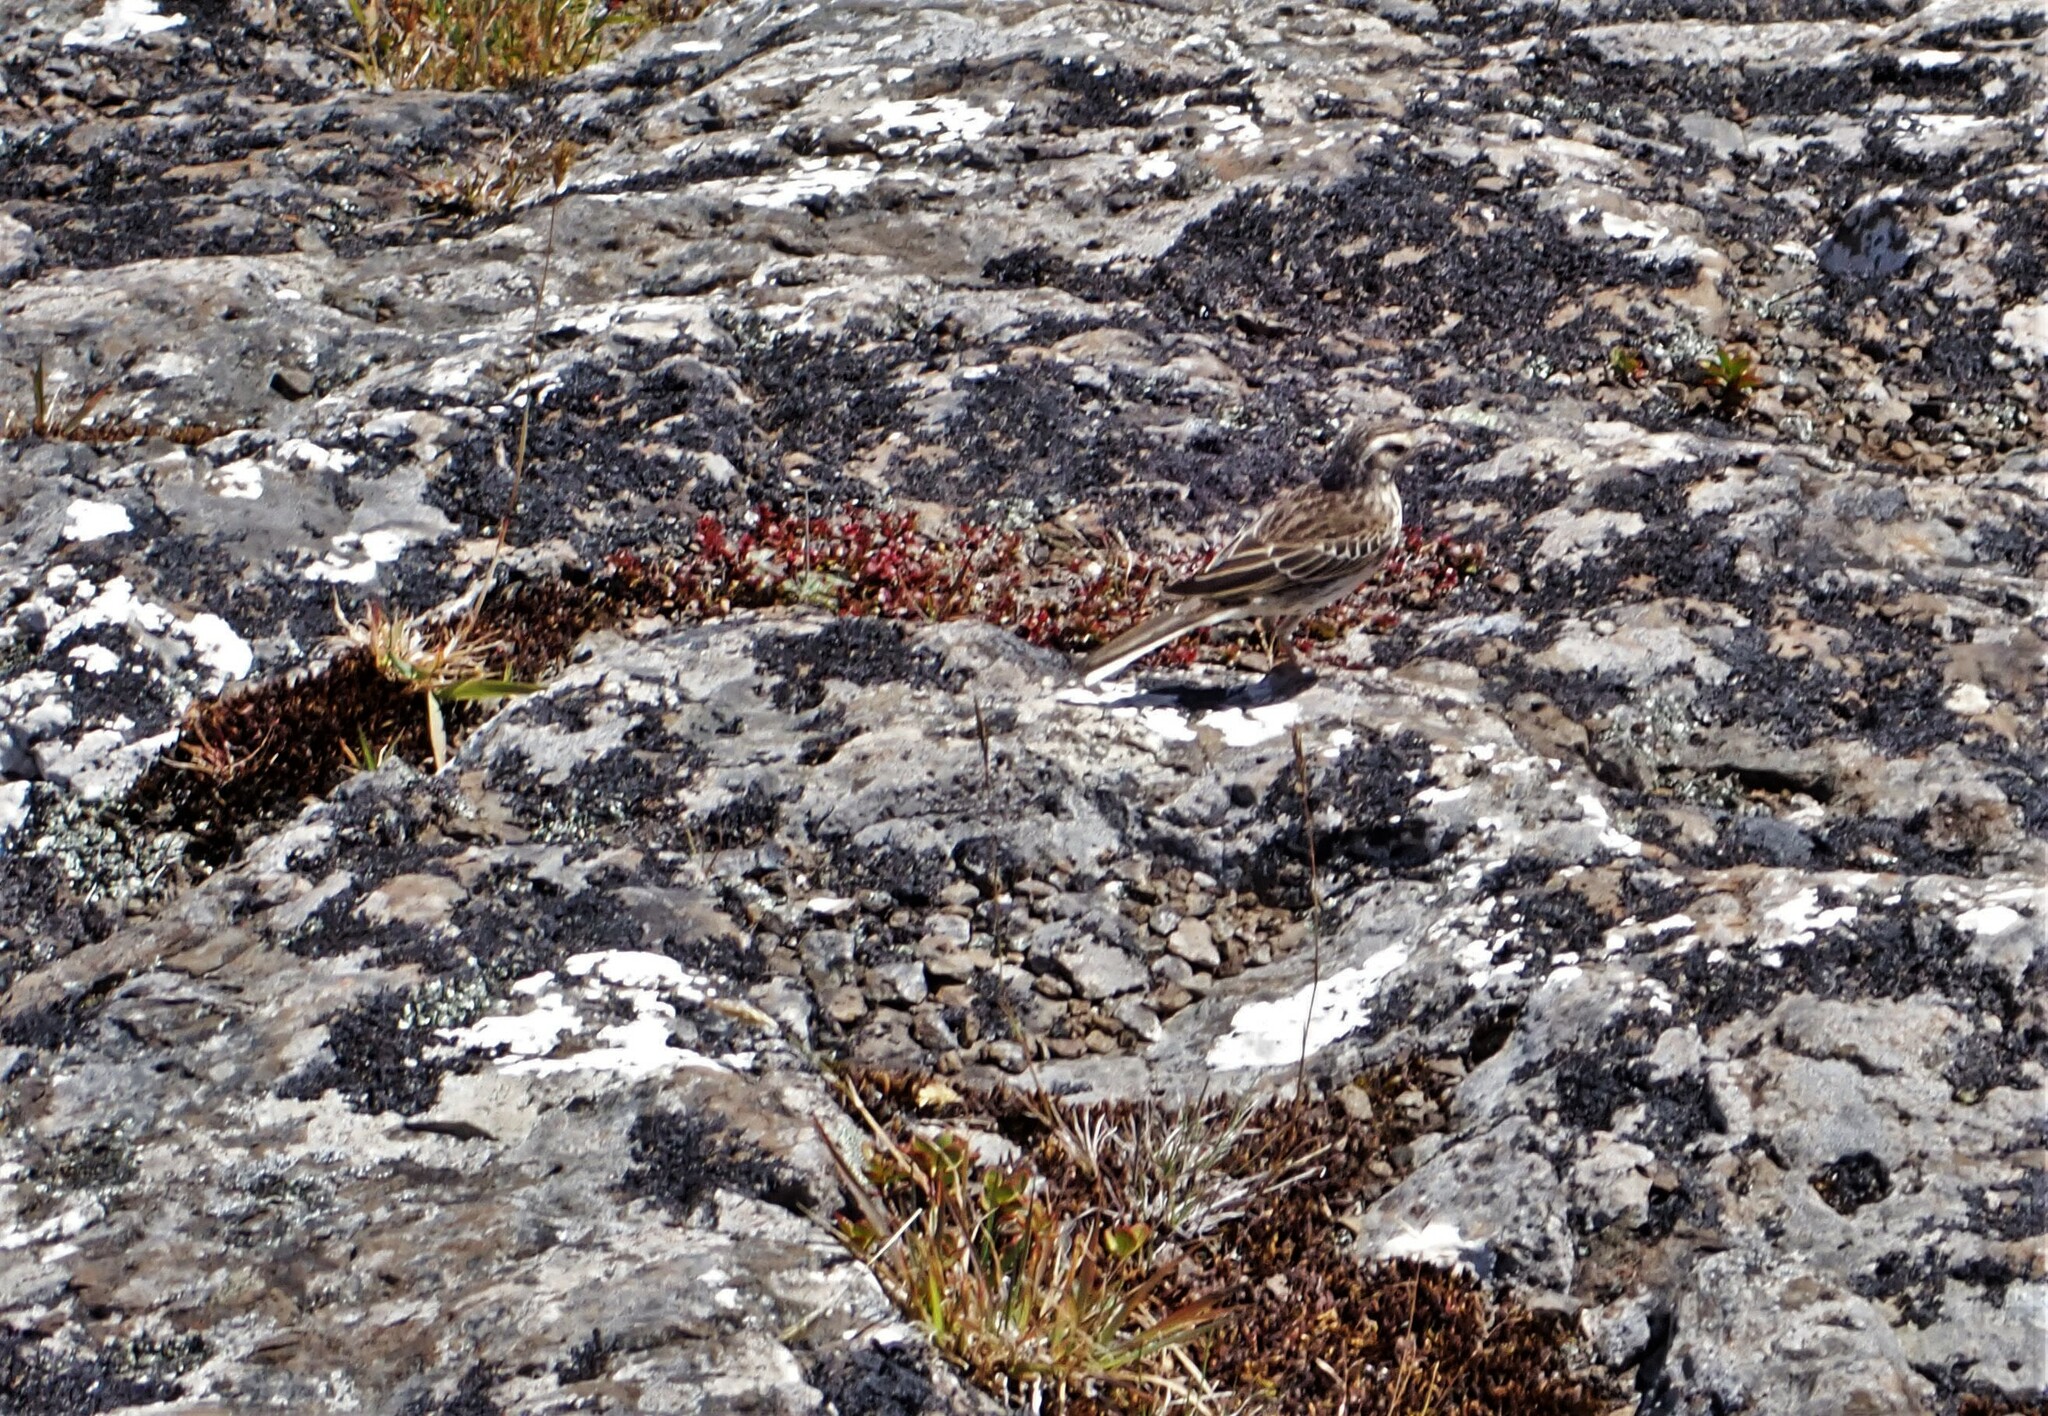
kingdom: Animalia
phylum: Chordata
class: Aves
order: Passeriformes
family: Motacillidae
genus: Anthus
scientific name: Anthus novaeseelandiae
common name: New zealand pipit
